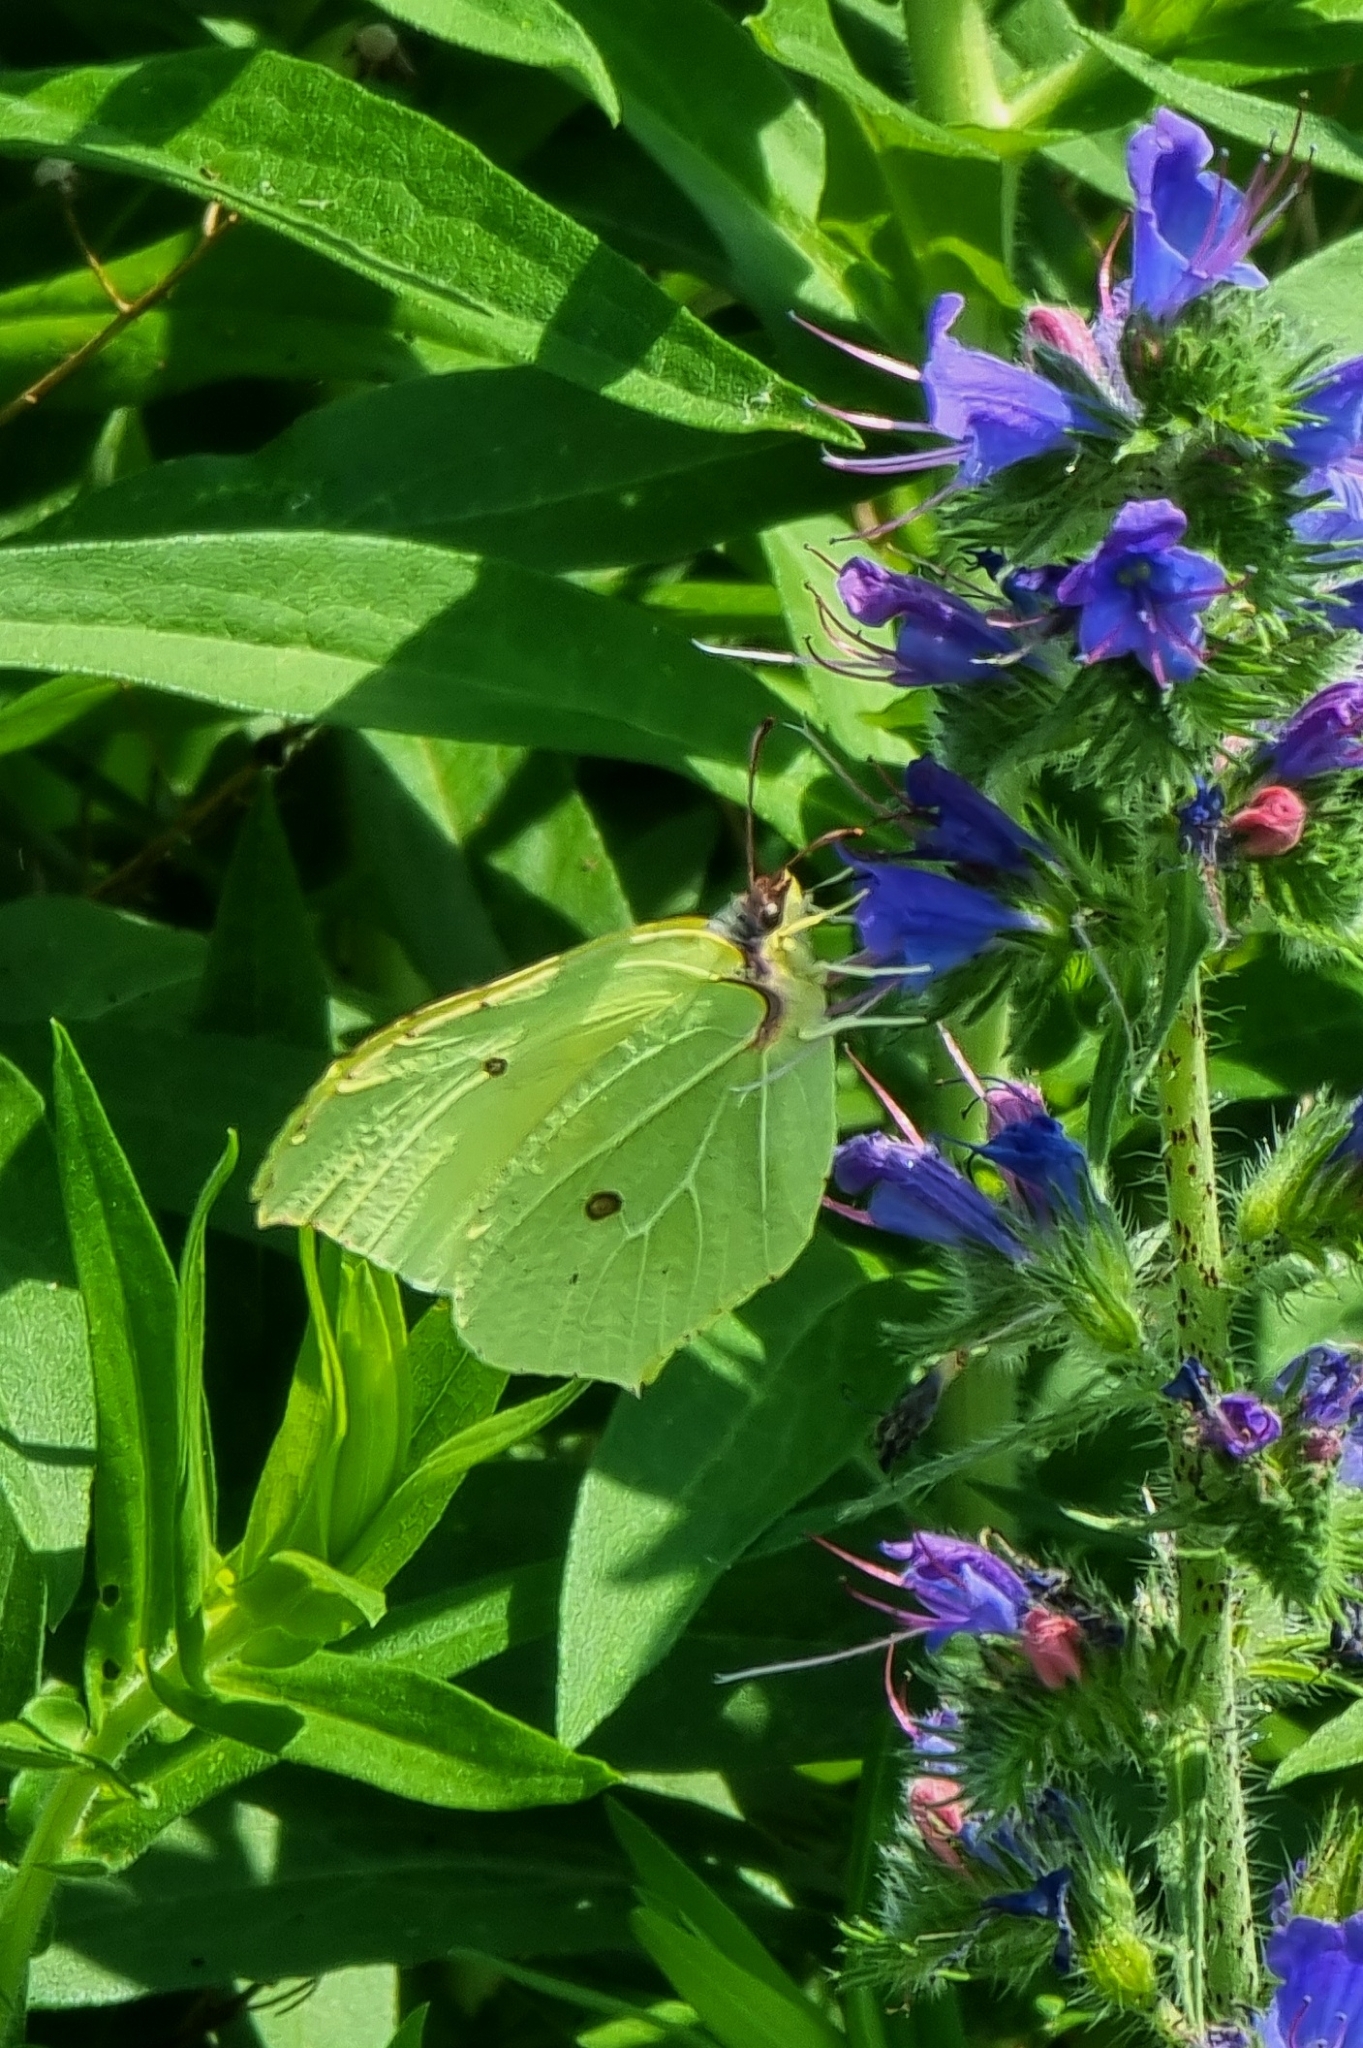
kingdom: Animalia
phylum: Arthropoda
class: Insecta
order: Lepidoptera
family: Pieridae
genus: Gonepteryx
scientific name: Gonepteryx rhamni
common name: Brimstone
